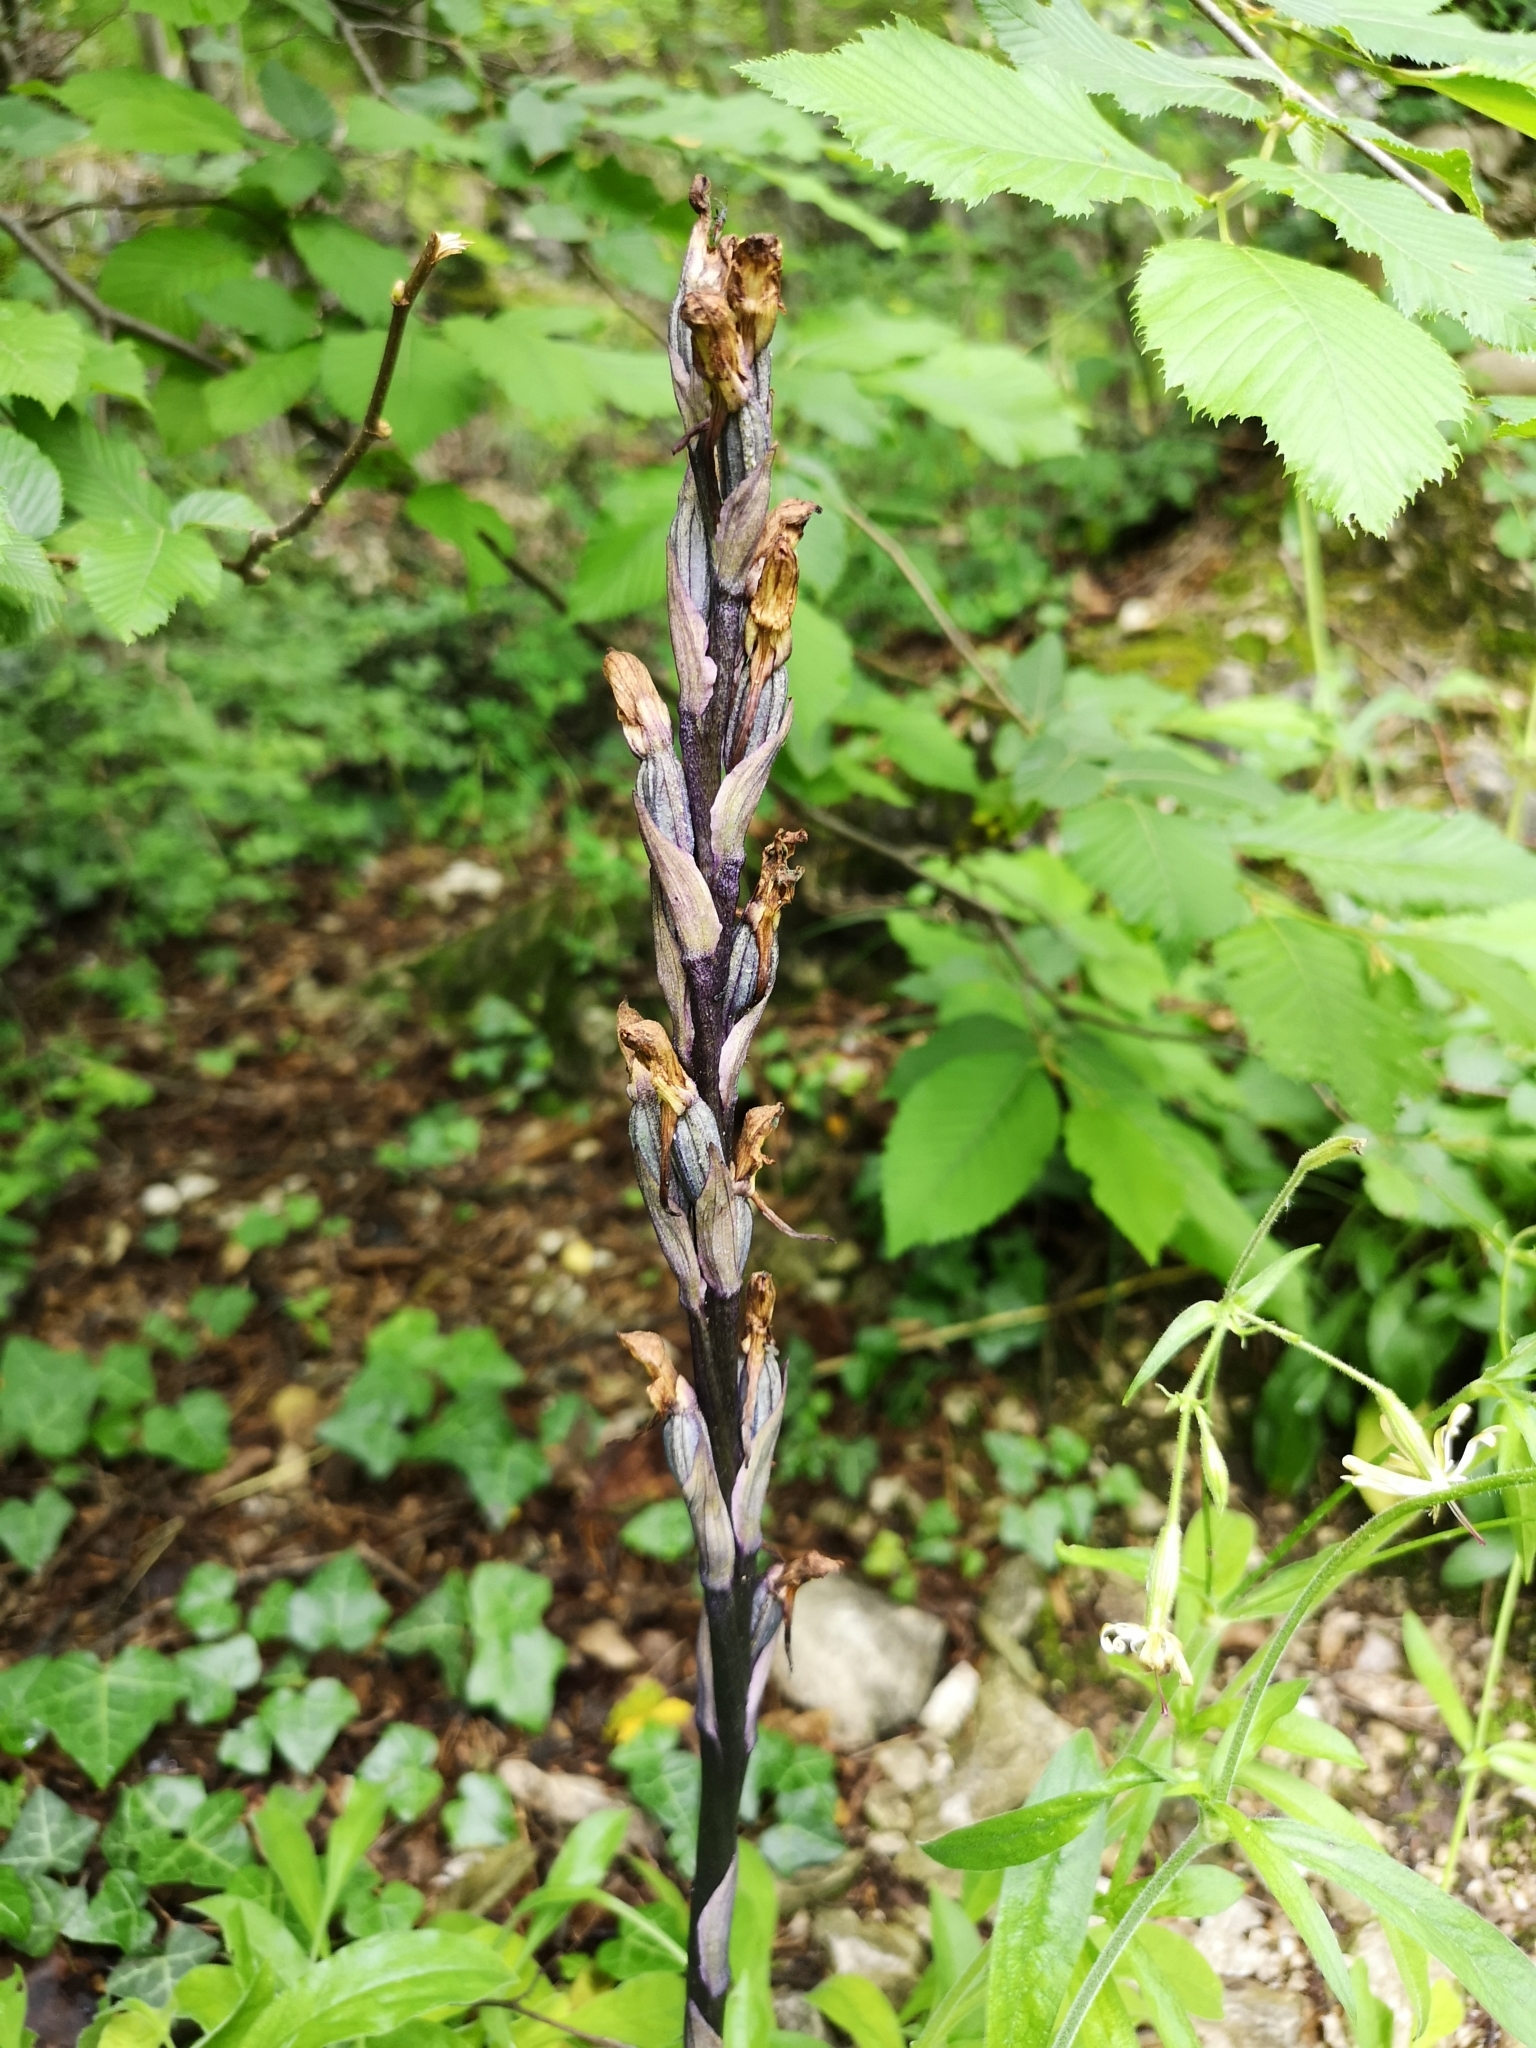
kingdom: Plantae
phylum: Tracheophyta
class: Liliopsida
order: Asparagales
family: Orchidaceae
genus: Limodorum
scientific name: Limodorum abortivum
